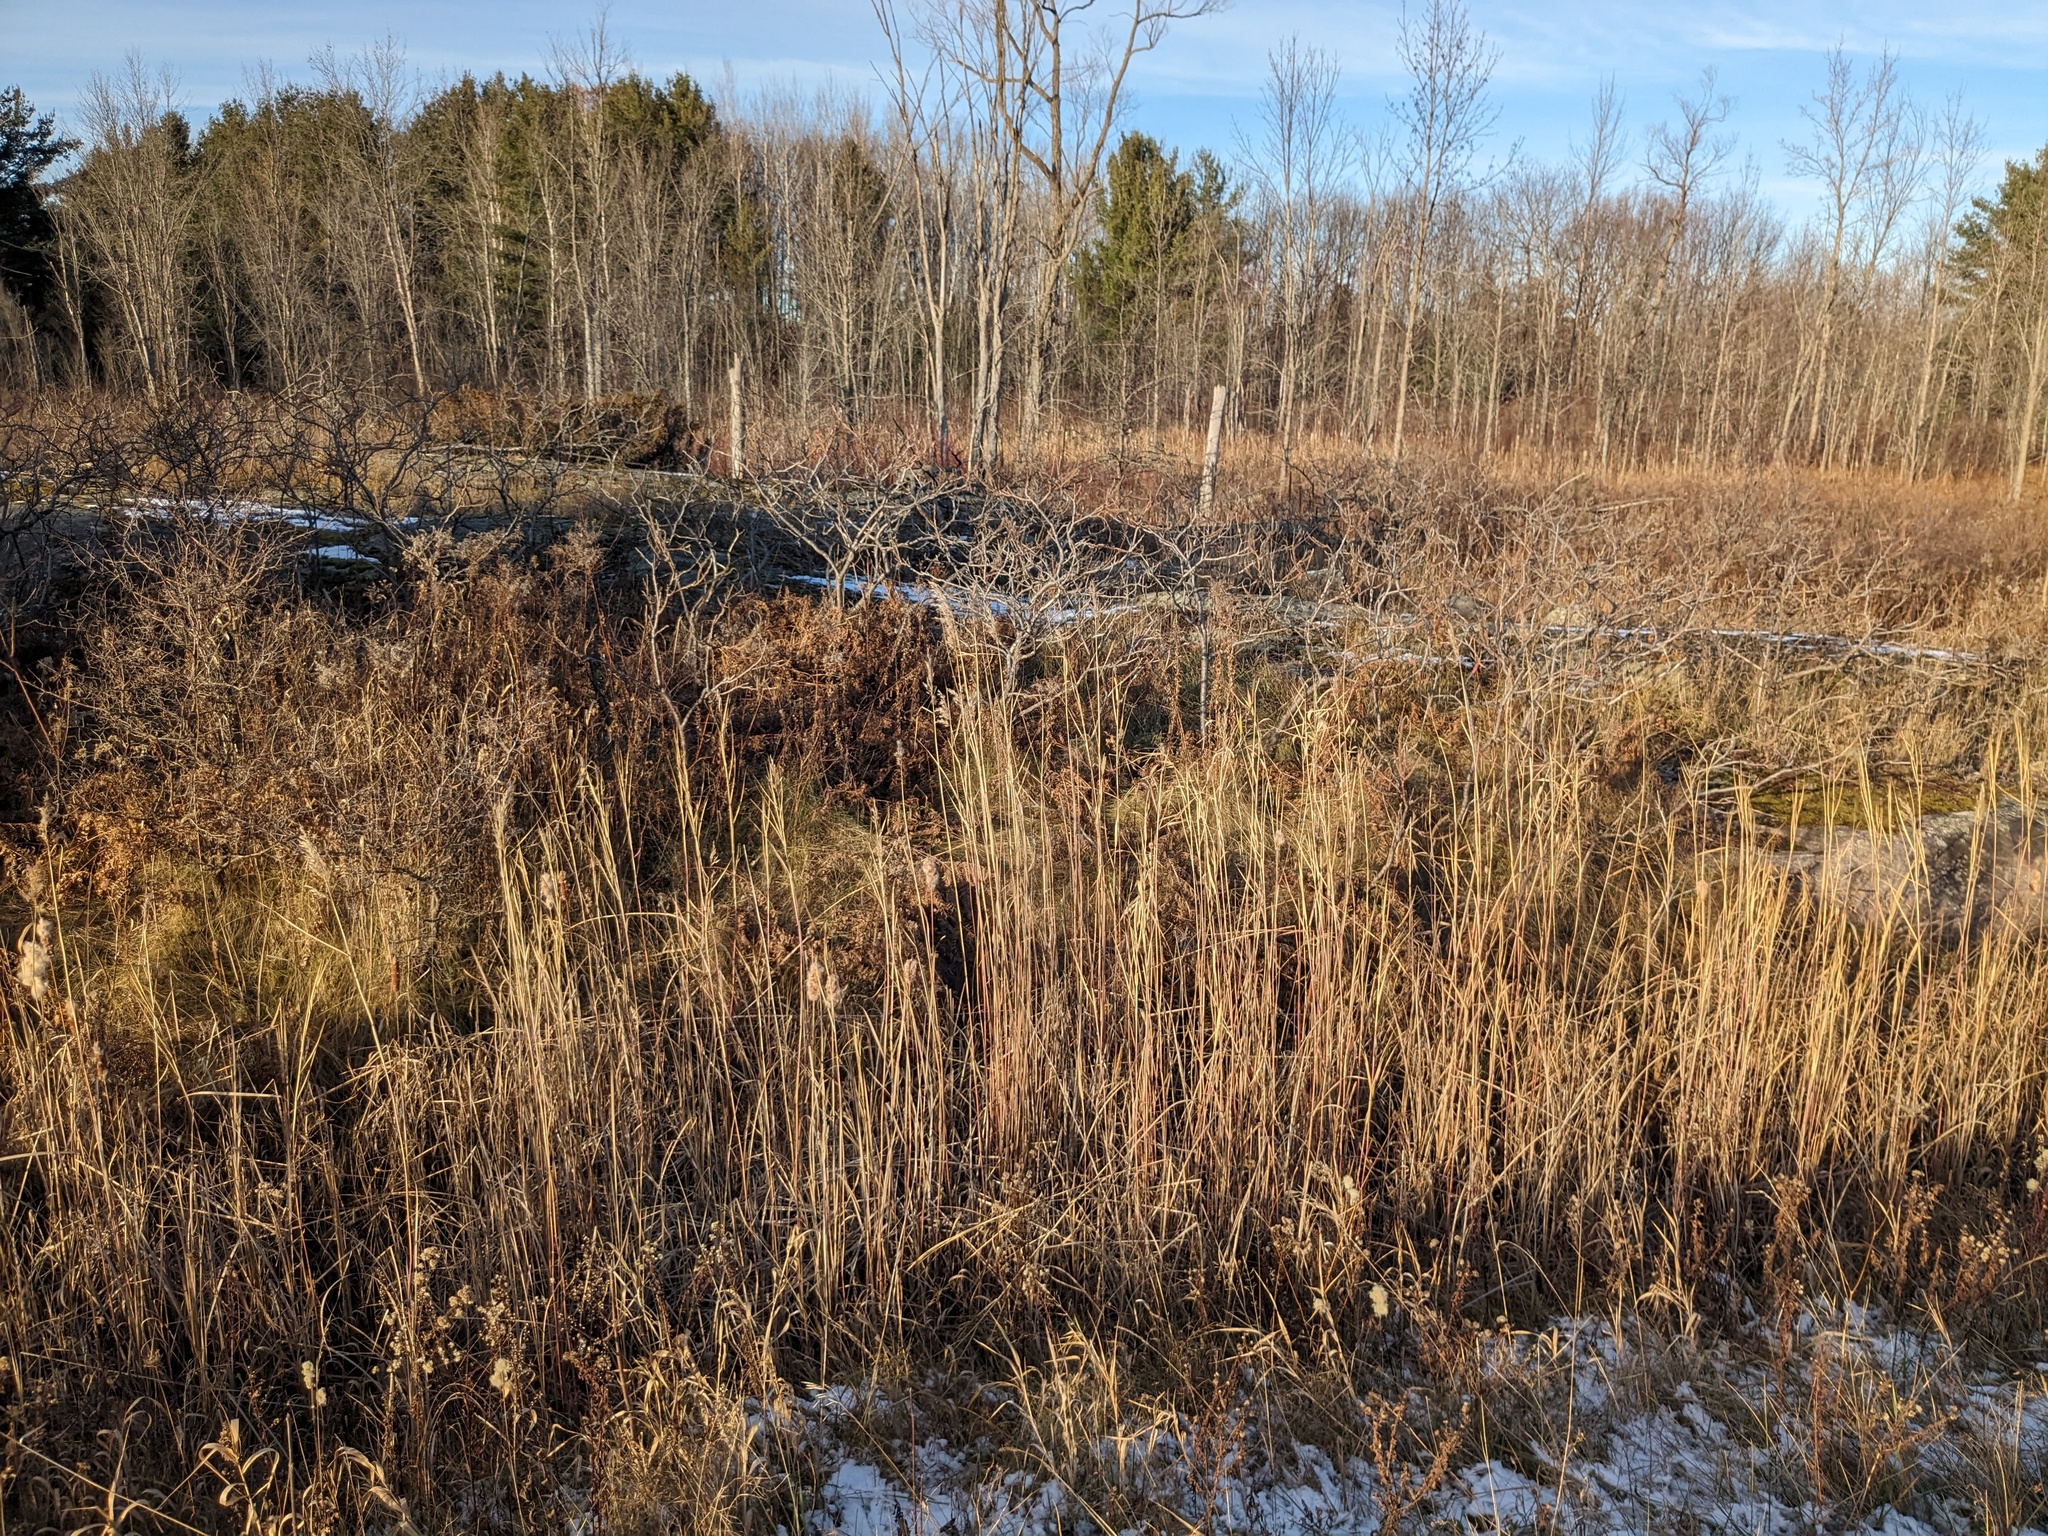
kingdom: Plantae
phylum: Tracheophyta
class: Liliopsida
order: Poales
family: Poaceae
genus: Phragmites
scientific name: Phragmites australis
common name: Common reed
